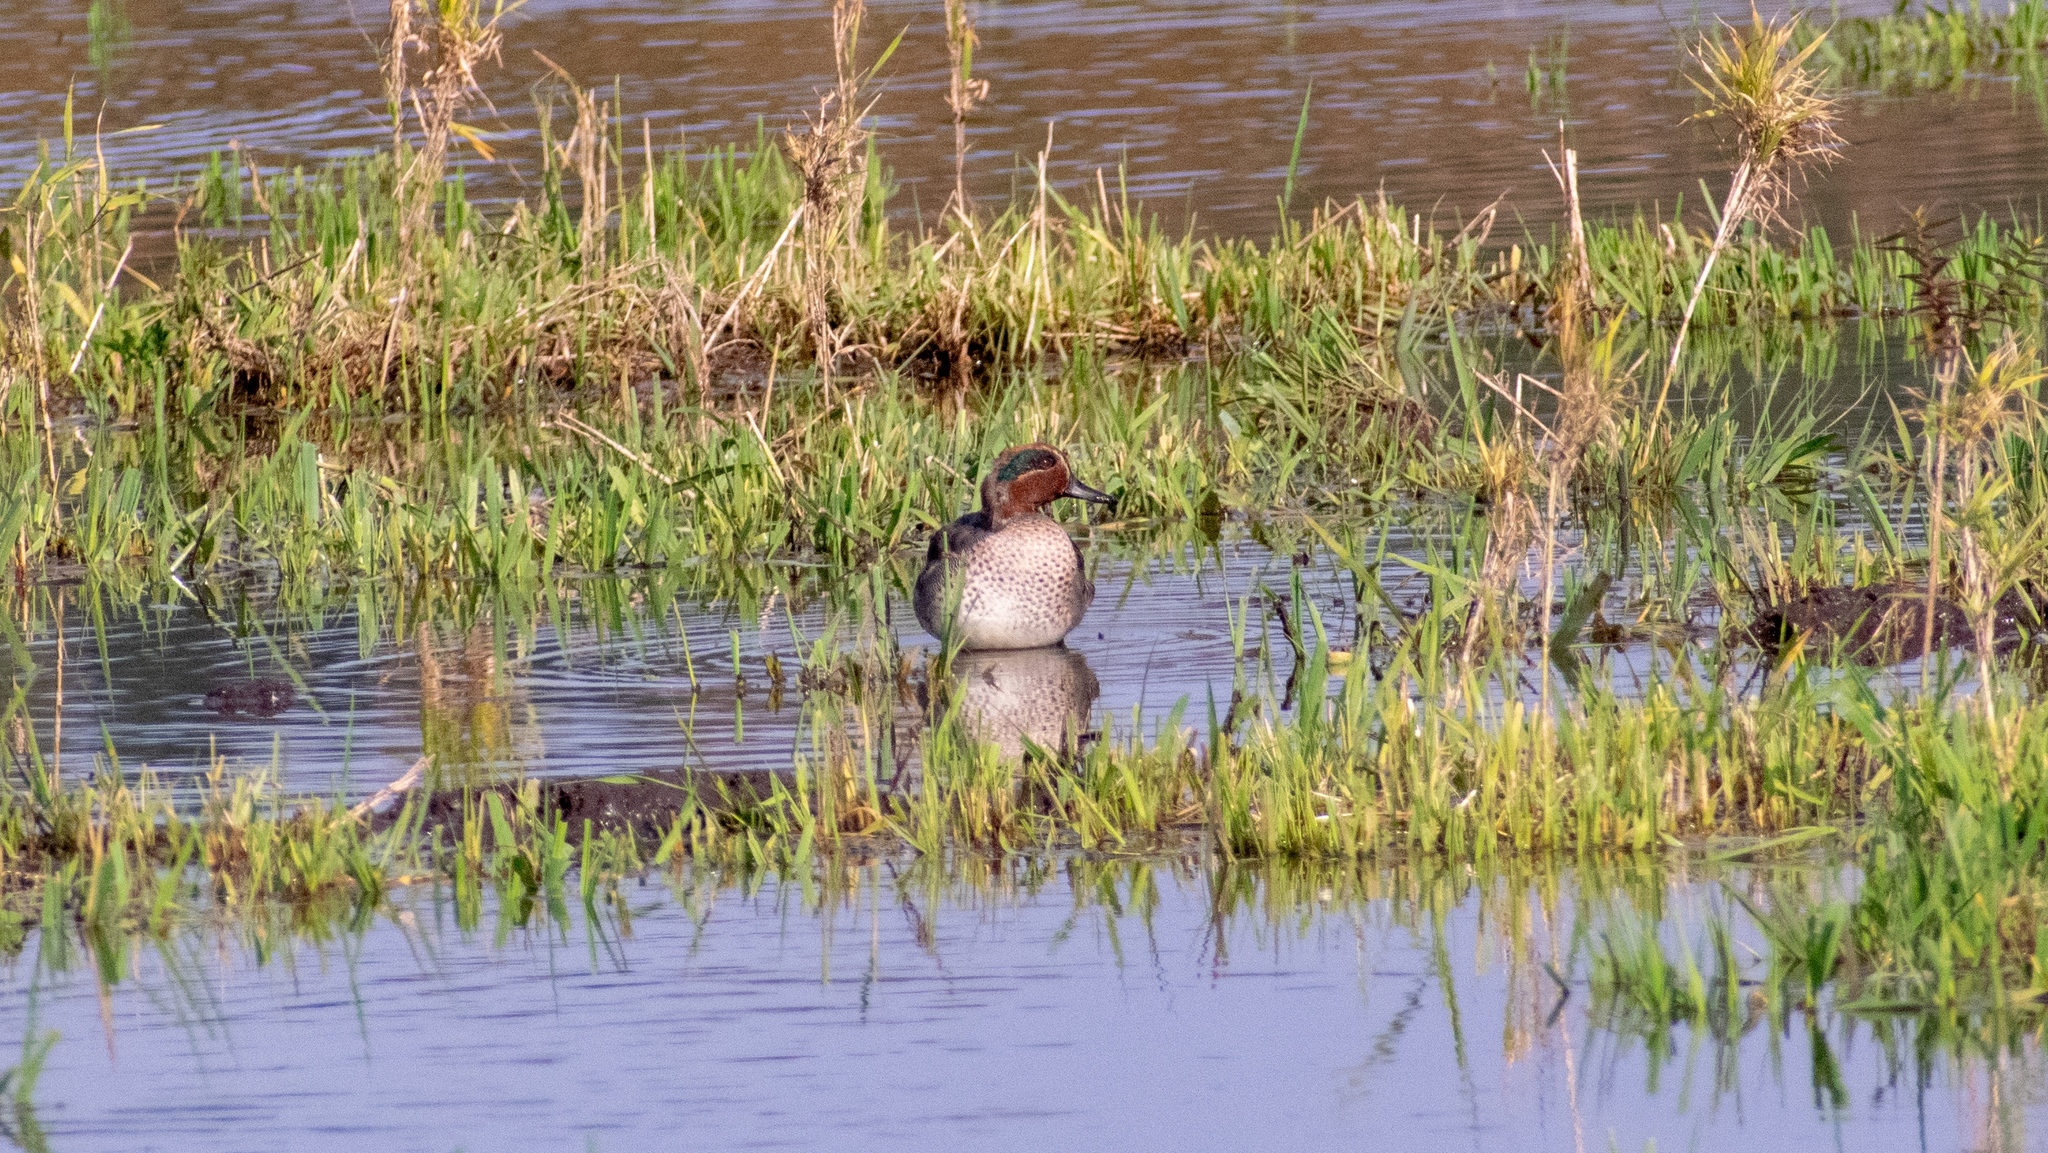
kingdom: Animalia
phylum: Chordata
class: Aves
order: Anseriformes
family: Anatidae
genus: Anas
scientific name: Anas crecca
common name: Eurasian teal
